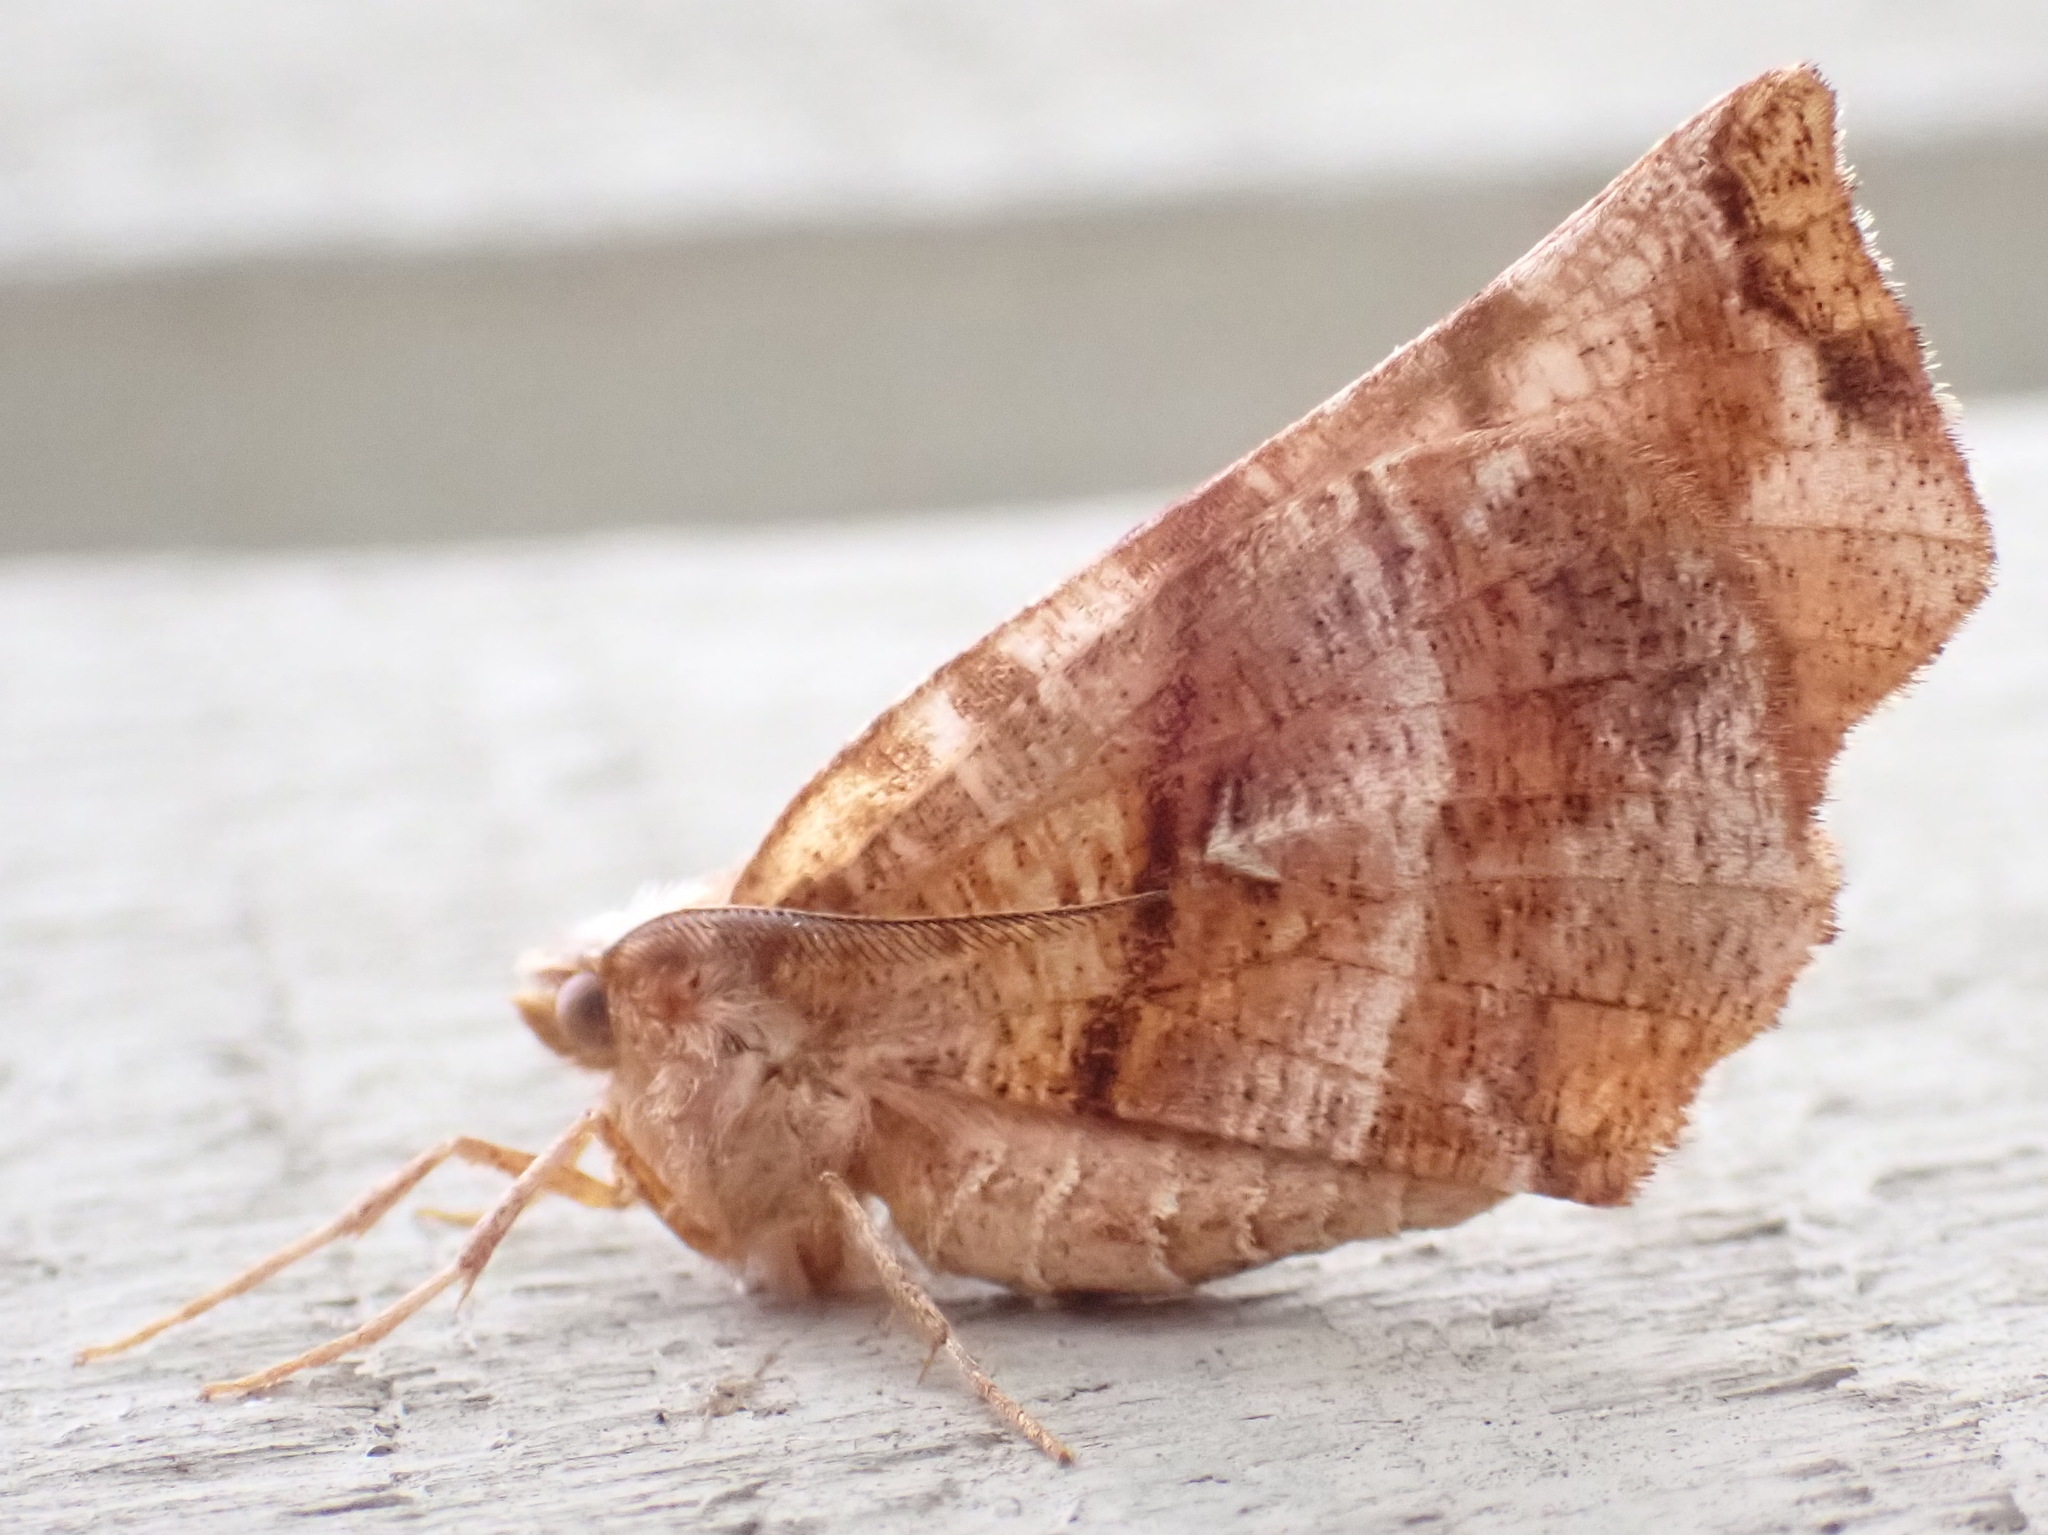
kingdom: Animalia
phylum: Arthropoda
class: Insecta
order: Lepidoptera
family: Geometridae
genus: Selenia
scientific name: Selenia alciphearia
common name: Brown-tipped thorn
